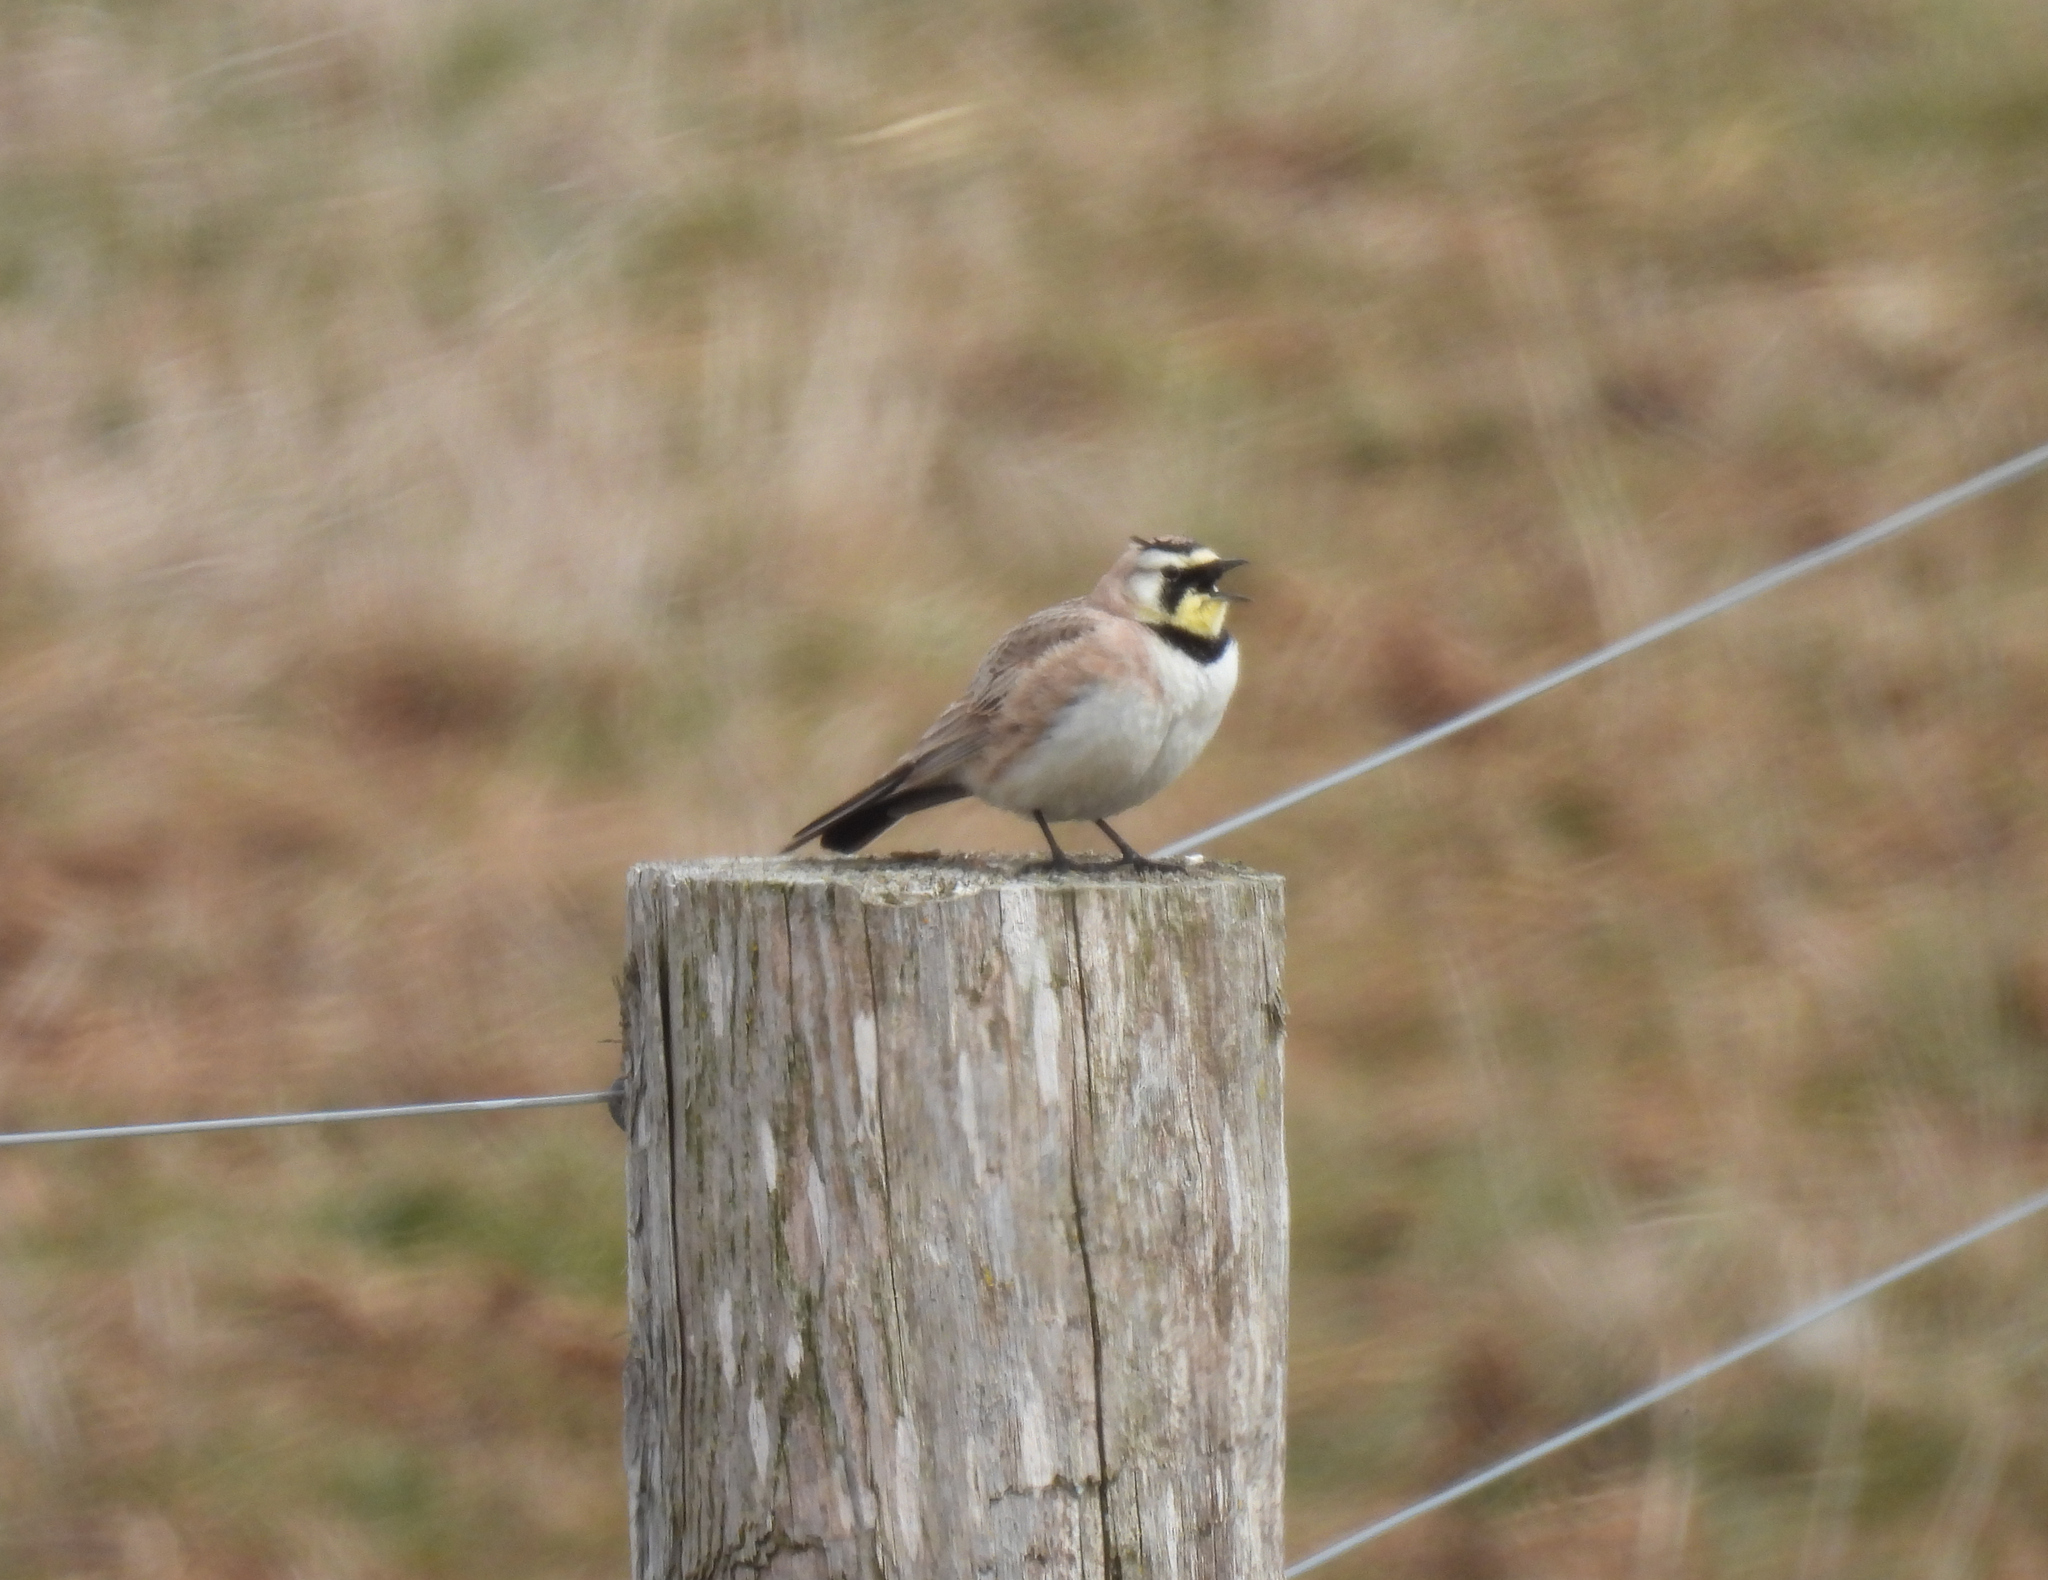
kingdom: Animalia
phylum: Chordata
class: Aves
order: Passeriformes
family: Alaudidae
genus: Eremophila
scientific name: Eremophila alpestris
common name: Horned lark
